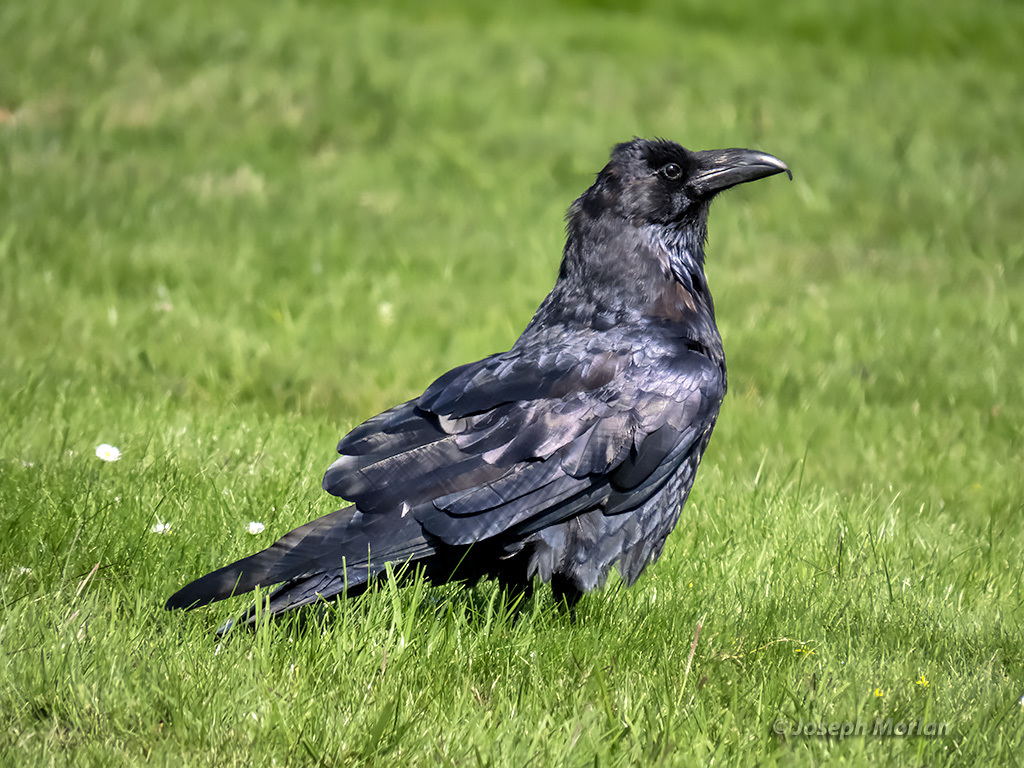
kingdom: Animalia
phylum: Chordata
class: Aves
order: Passeriformes
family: Corvidae
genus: Corvus
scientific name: Corvus corax
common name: Common raven
